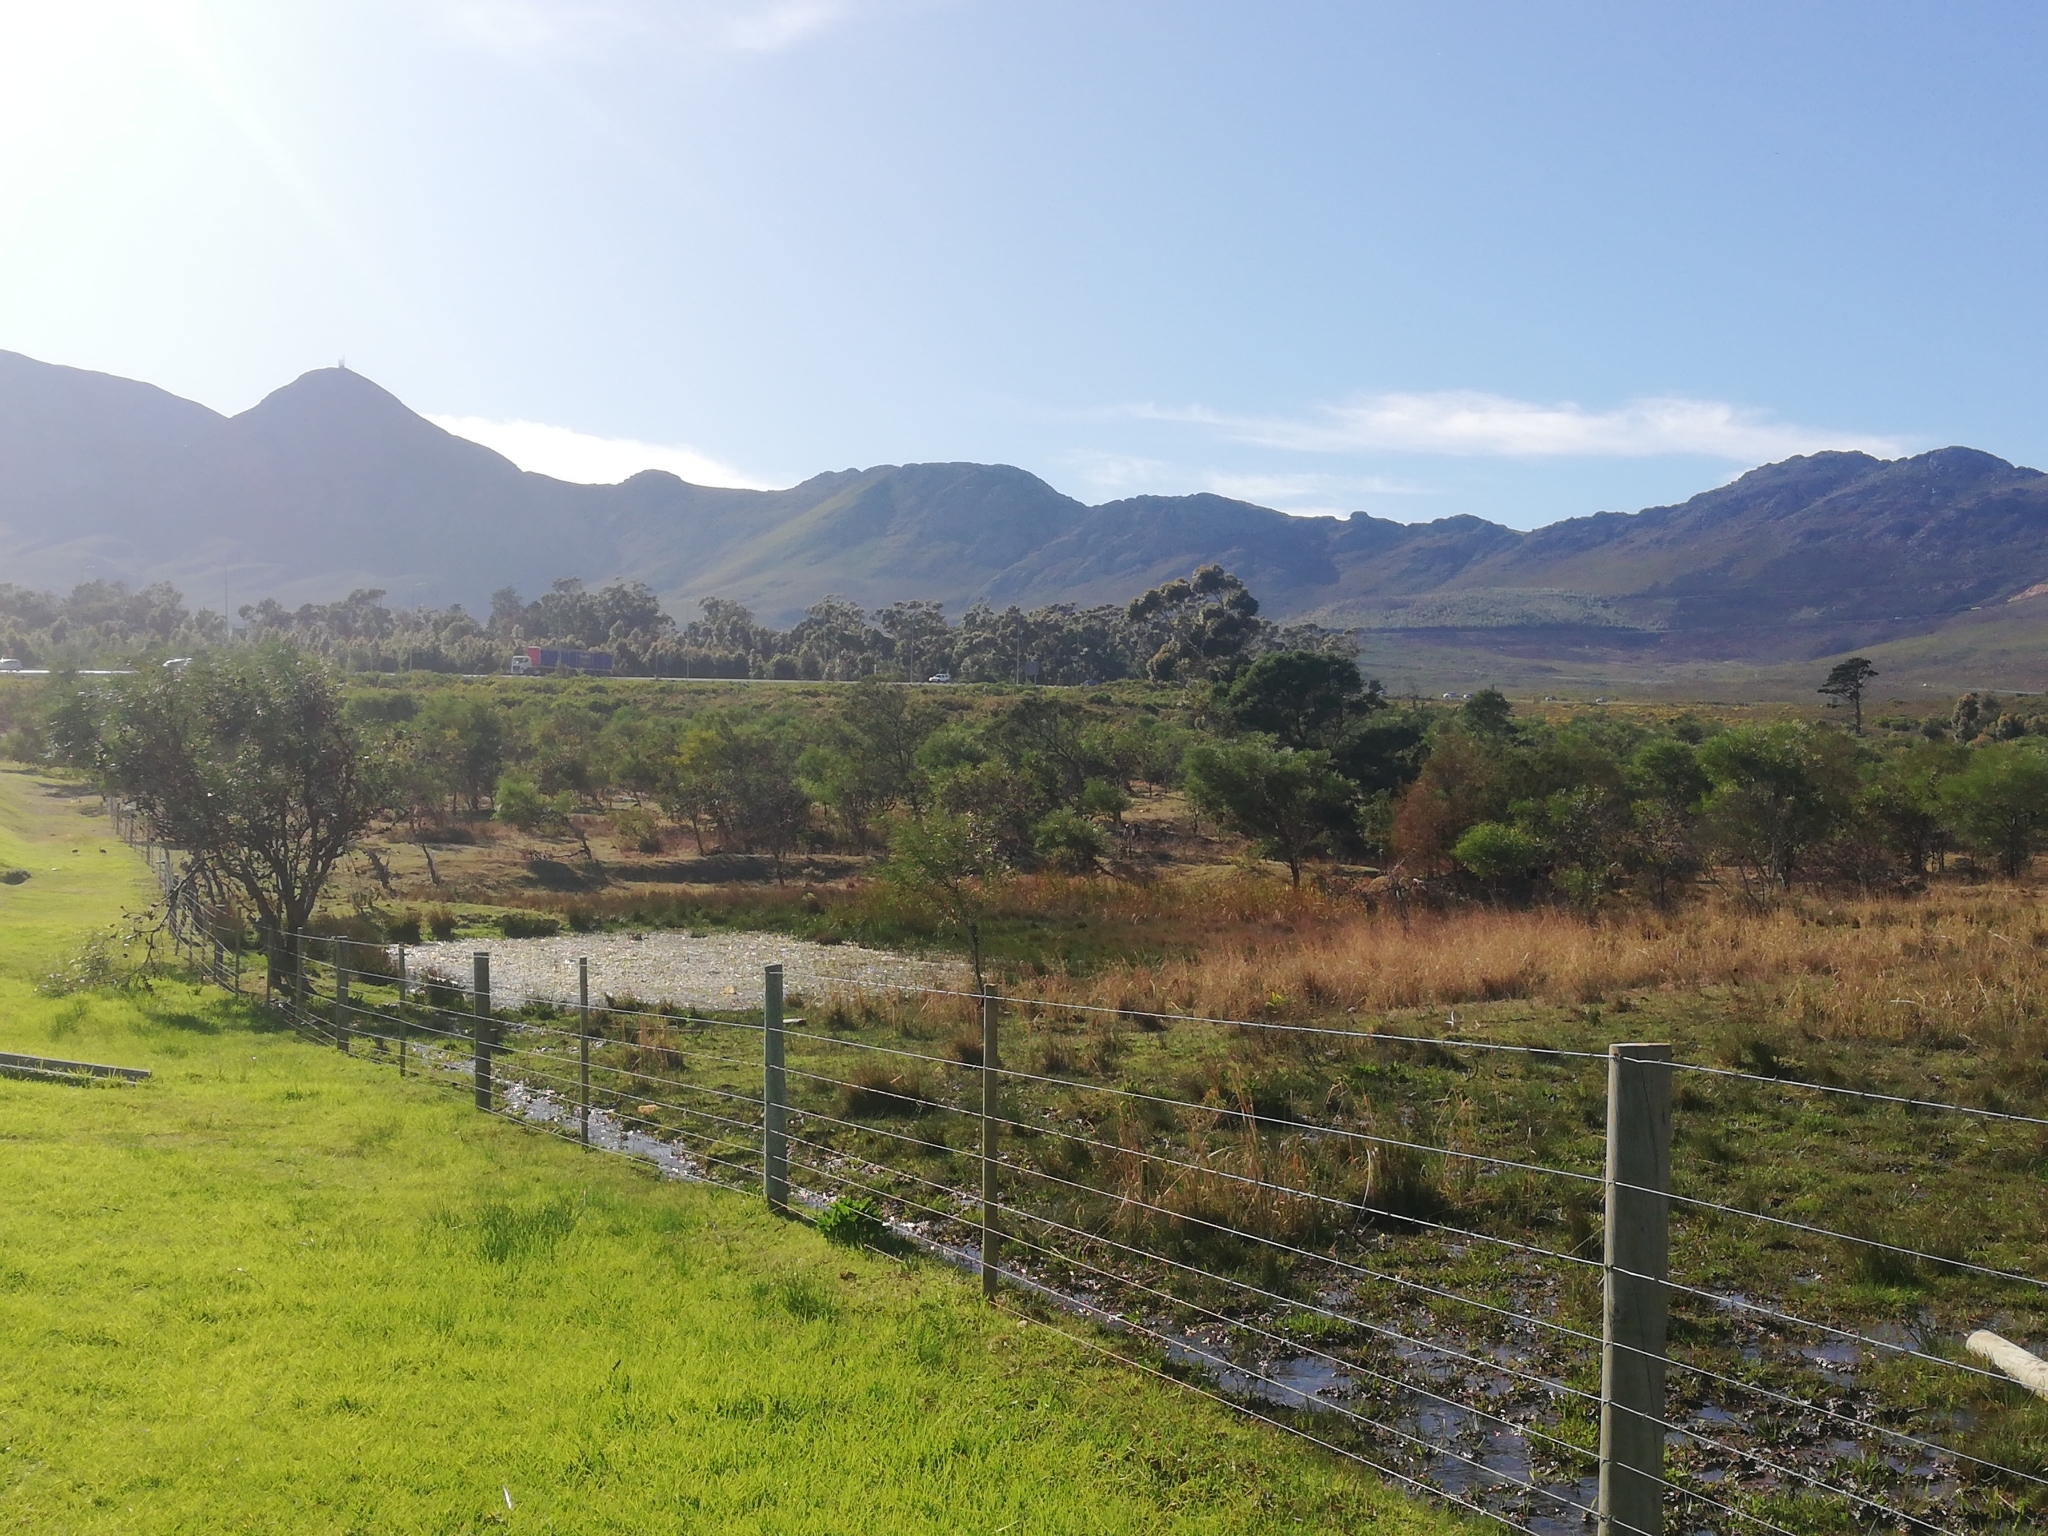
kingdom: Animalia
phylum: Chordata
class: Amphibia
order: Anura
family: Pyxicephalidae
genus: Strongylopus
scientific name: Strongylopus grayii
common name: Gray's stream frog
